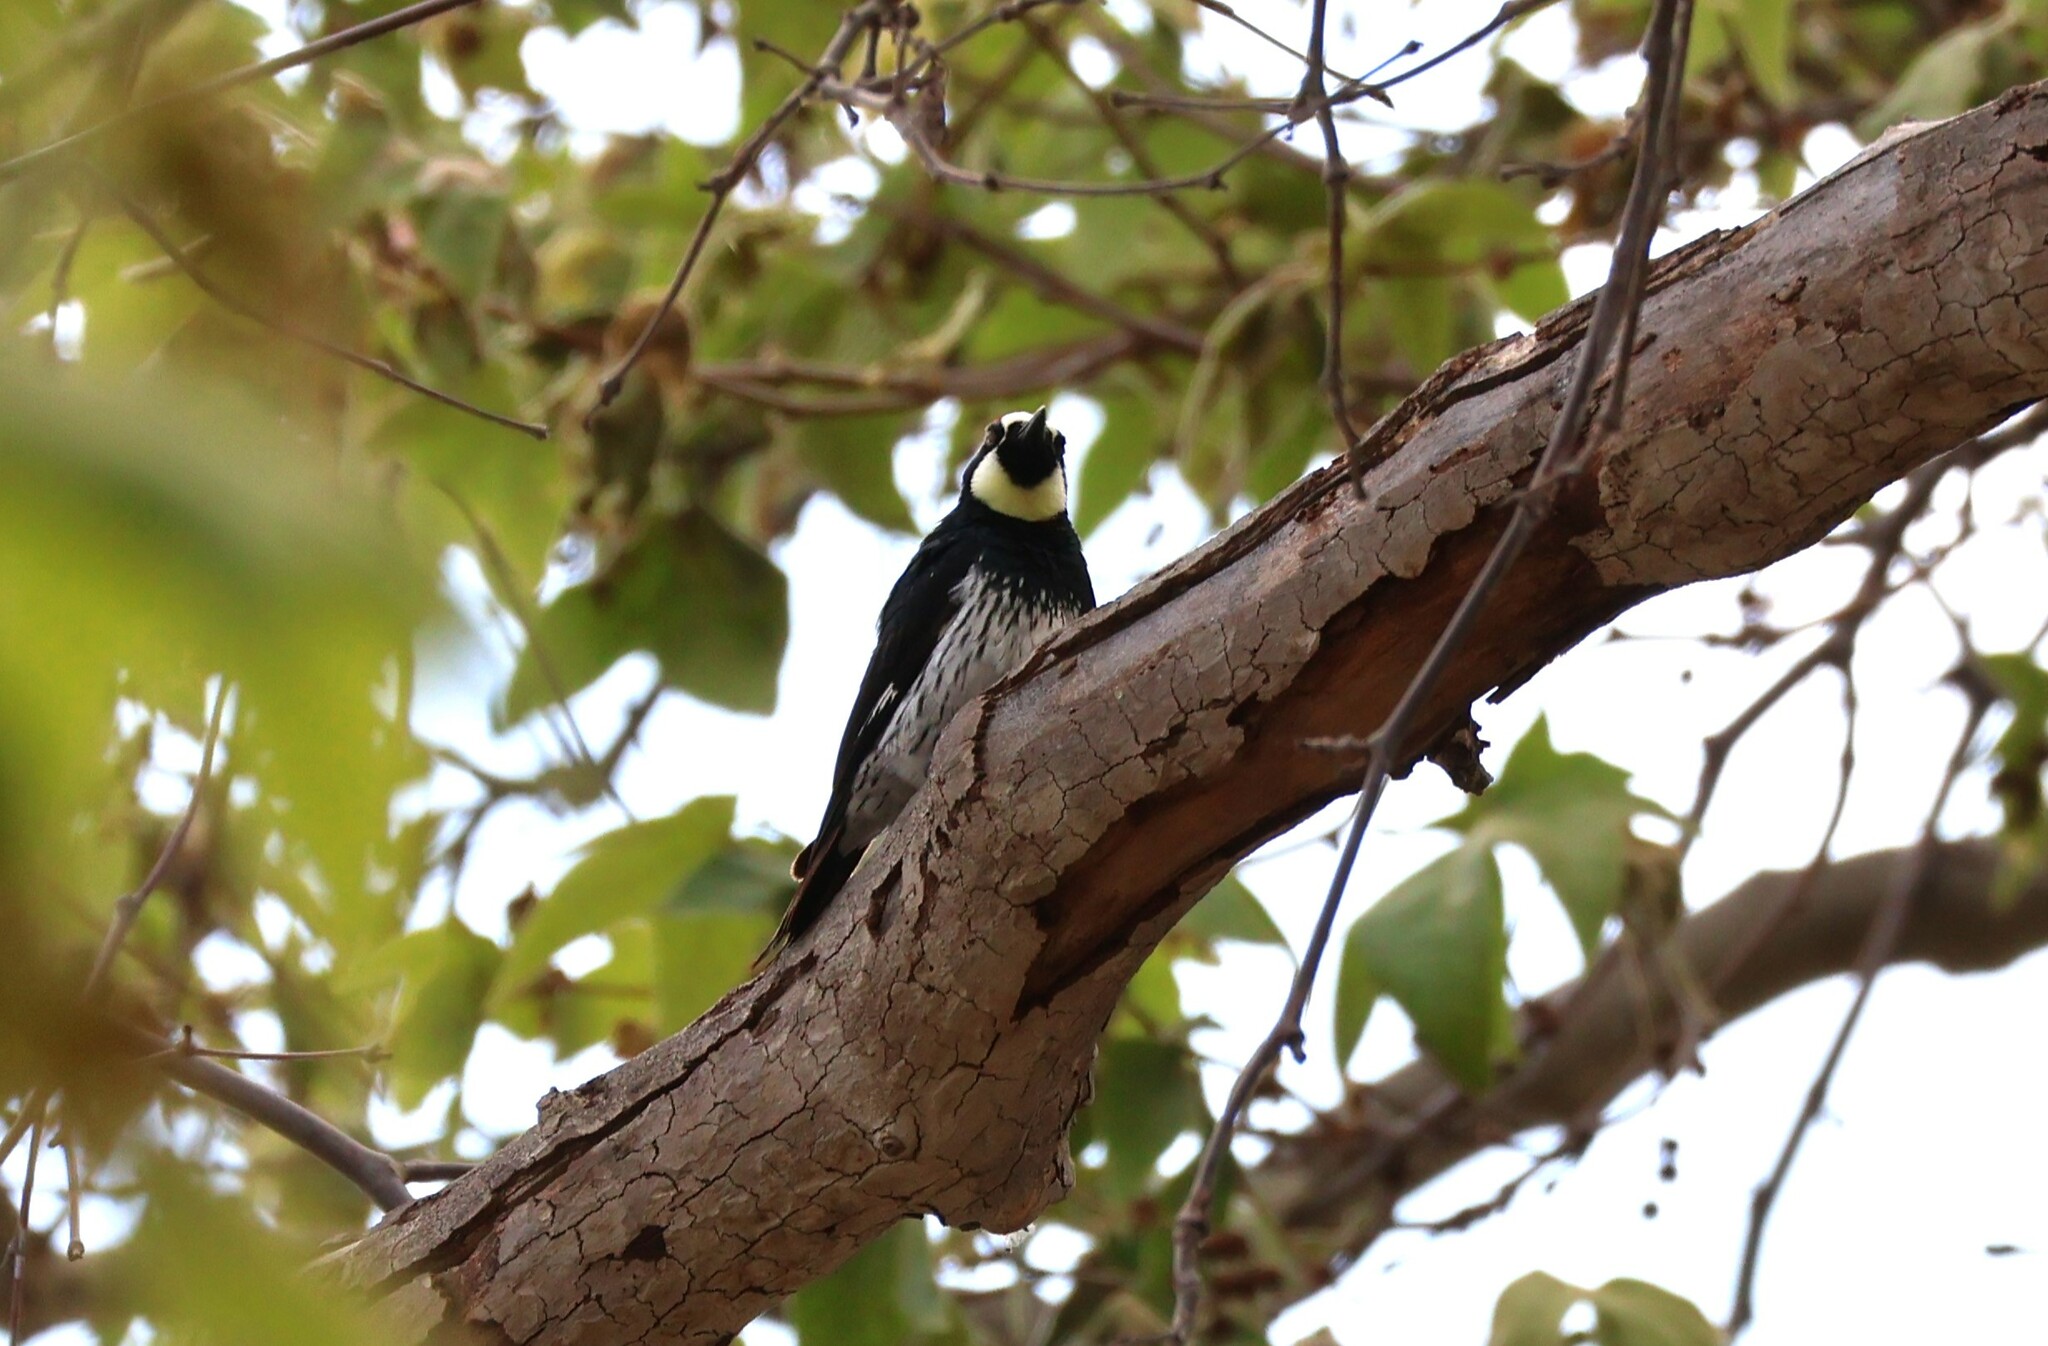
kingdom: Animalia
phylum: Chordata
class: Aves
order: Piciformes
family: Picidae
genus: Melanerpes
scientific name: Melanerpes formicivorus
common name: Acorn woodpecker
